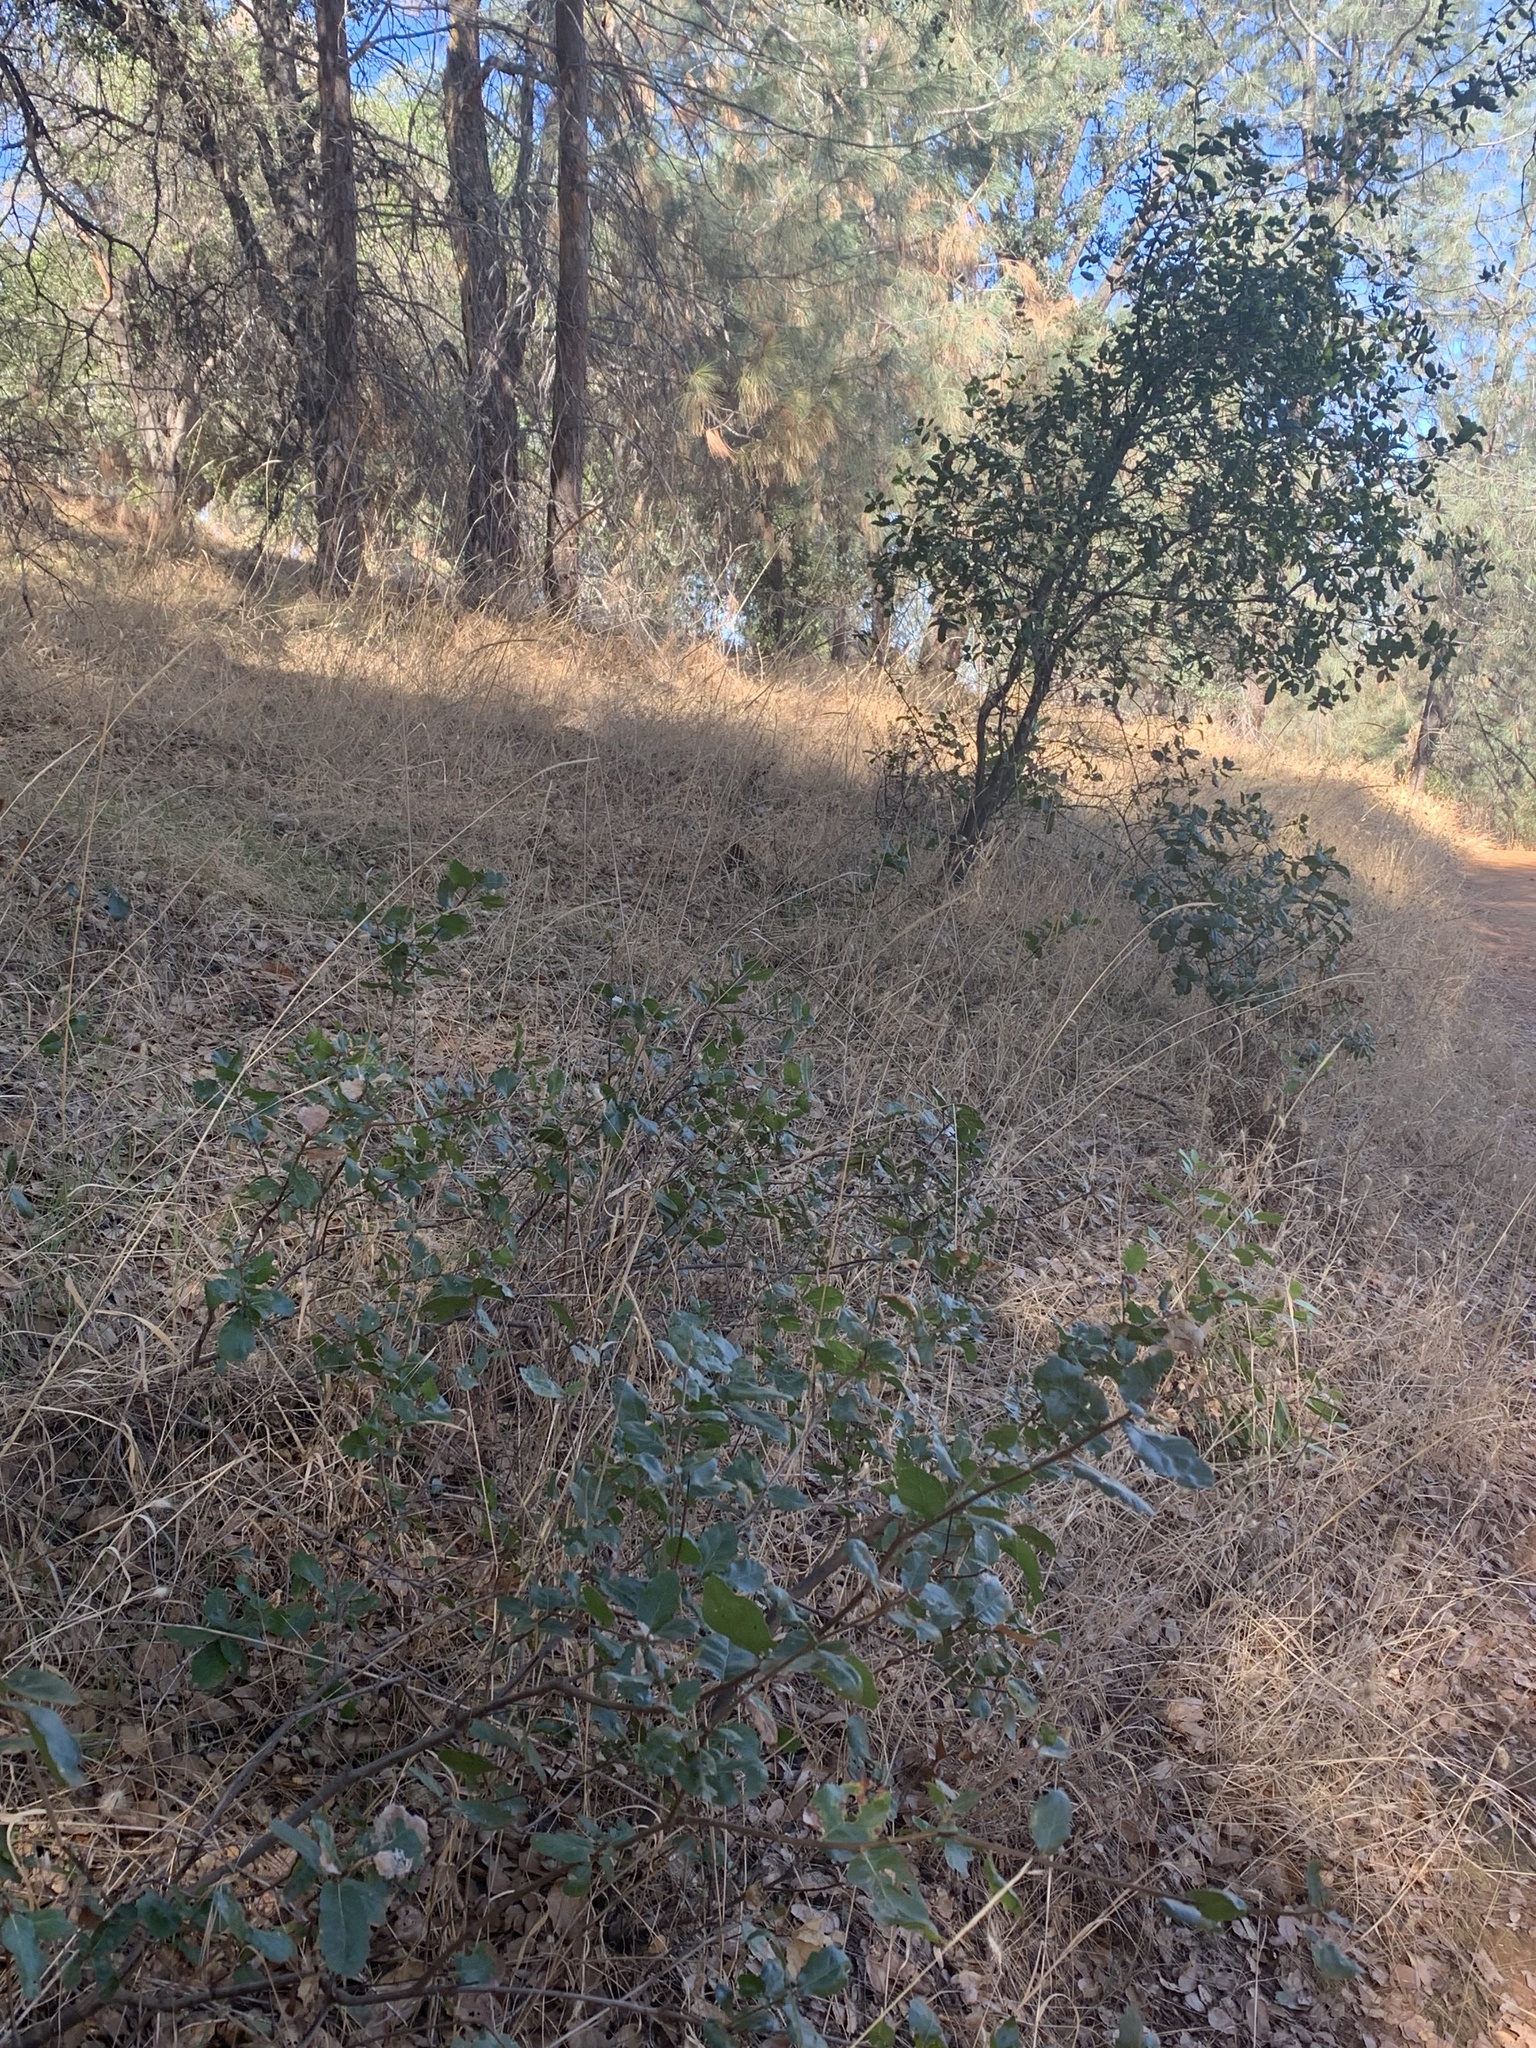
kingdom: Plantae
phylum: Tracheophyta
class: Magnoliopsida
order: Fagales
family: Fagaceae
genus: Quercus
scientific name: Quercus wislizeni
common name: Interior live oak
